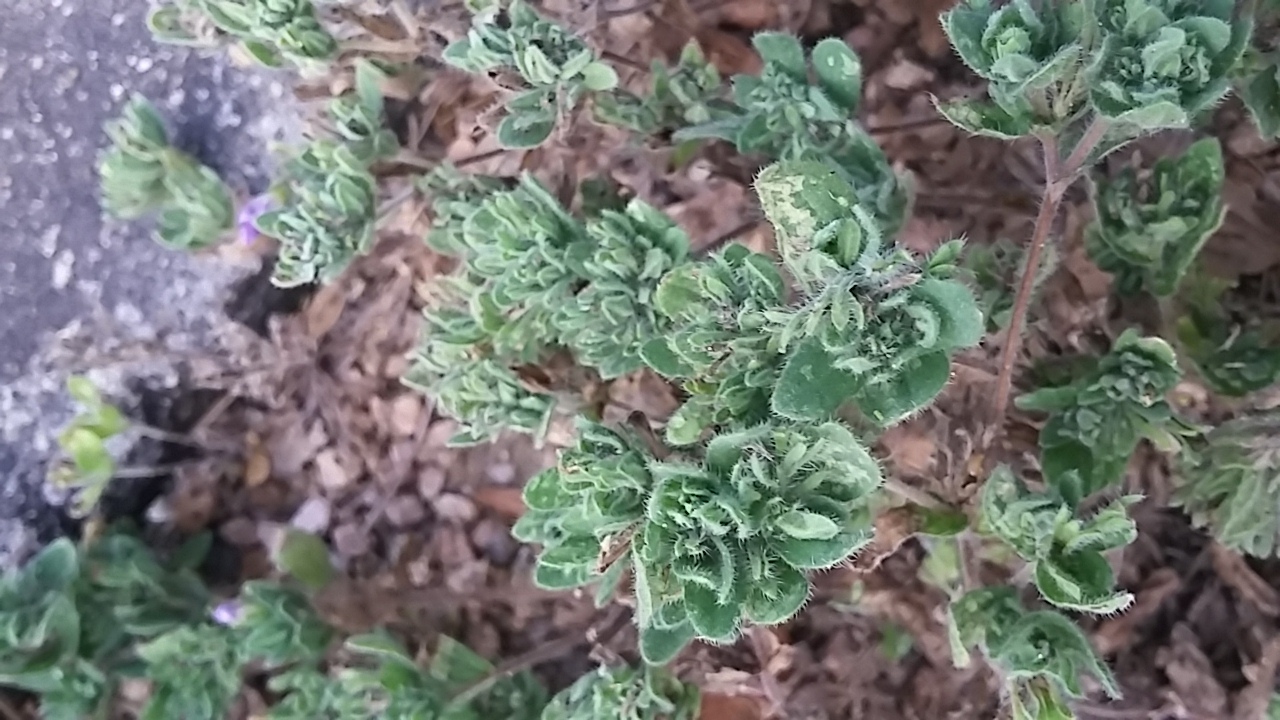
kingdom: Plantae
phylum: Tracheophyta
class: Magnoliopsida
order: Boraginales
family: Namaceae
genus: Nama
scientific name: Nama hispida
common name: Bristly nama
